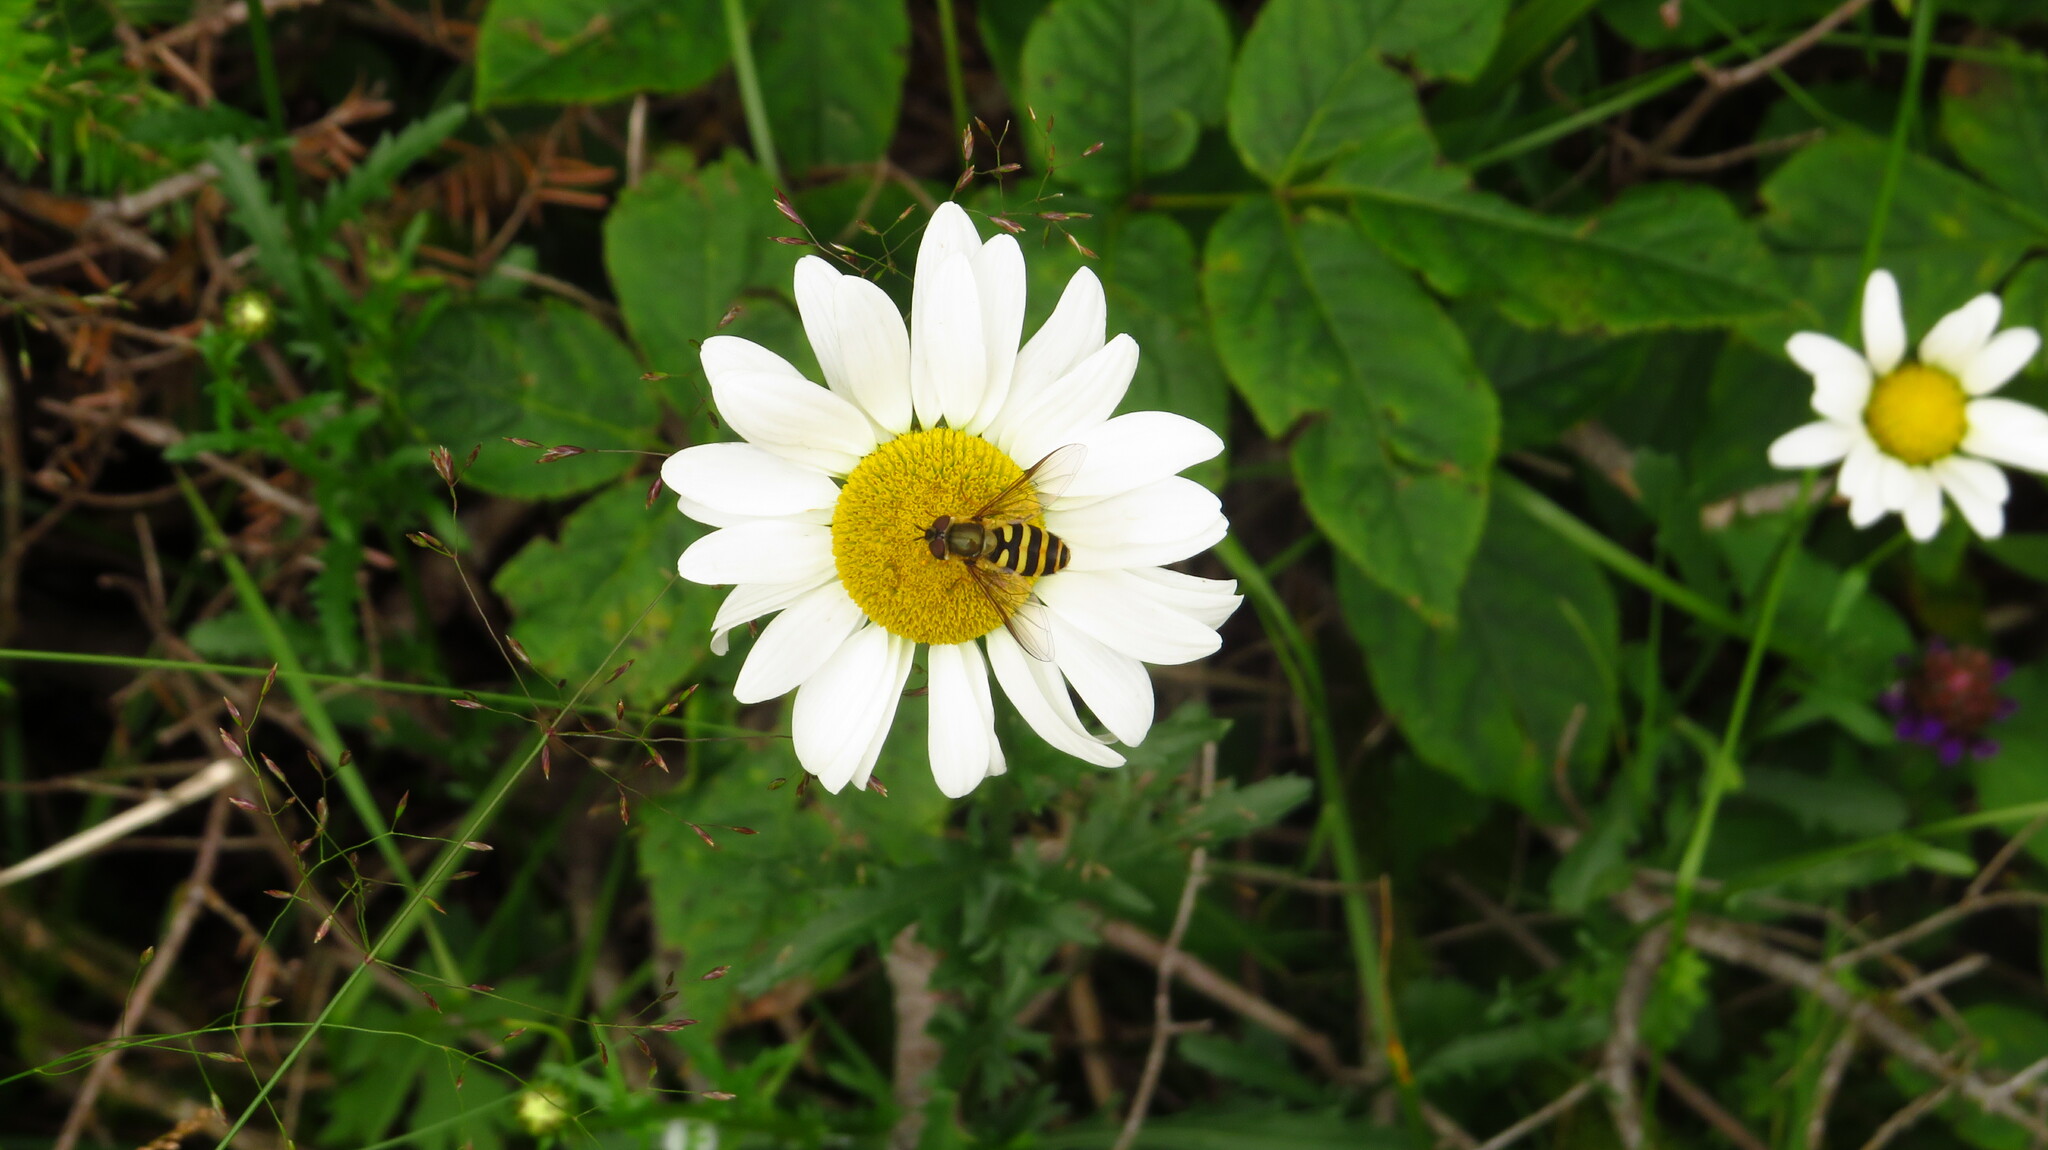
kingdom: Plantae
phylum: Tracheophyta
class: Magnoliopsida
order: Asterales
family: Asteraceae
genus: Leucanthemum
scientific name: Leucanthemum vulgare
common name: Oxeye daisy
